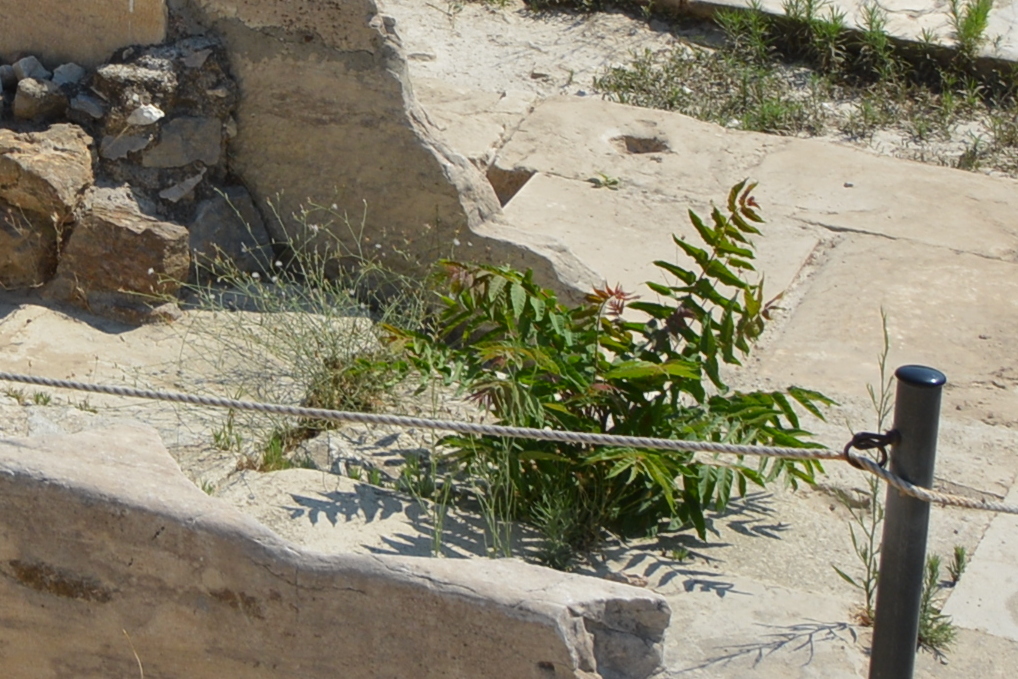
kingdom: Plantae
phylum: Tracheophyta
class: Magnoliopsida
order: Sapindales
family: Simaroubaceae
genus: Ailanthus
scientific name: Ailanthus altissima
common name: Tree-of-heaven
